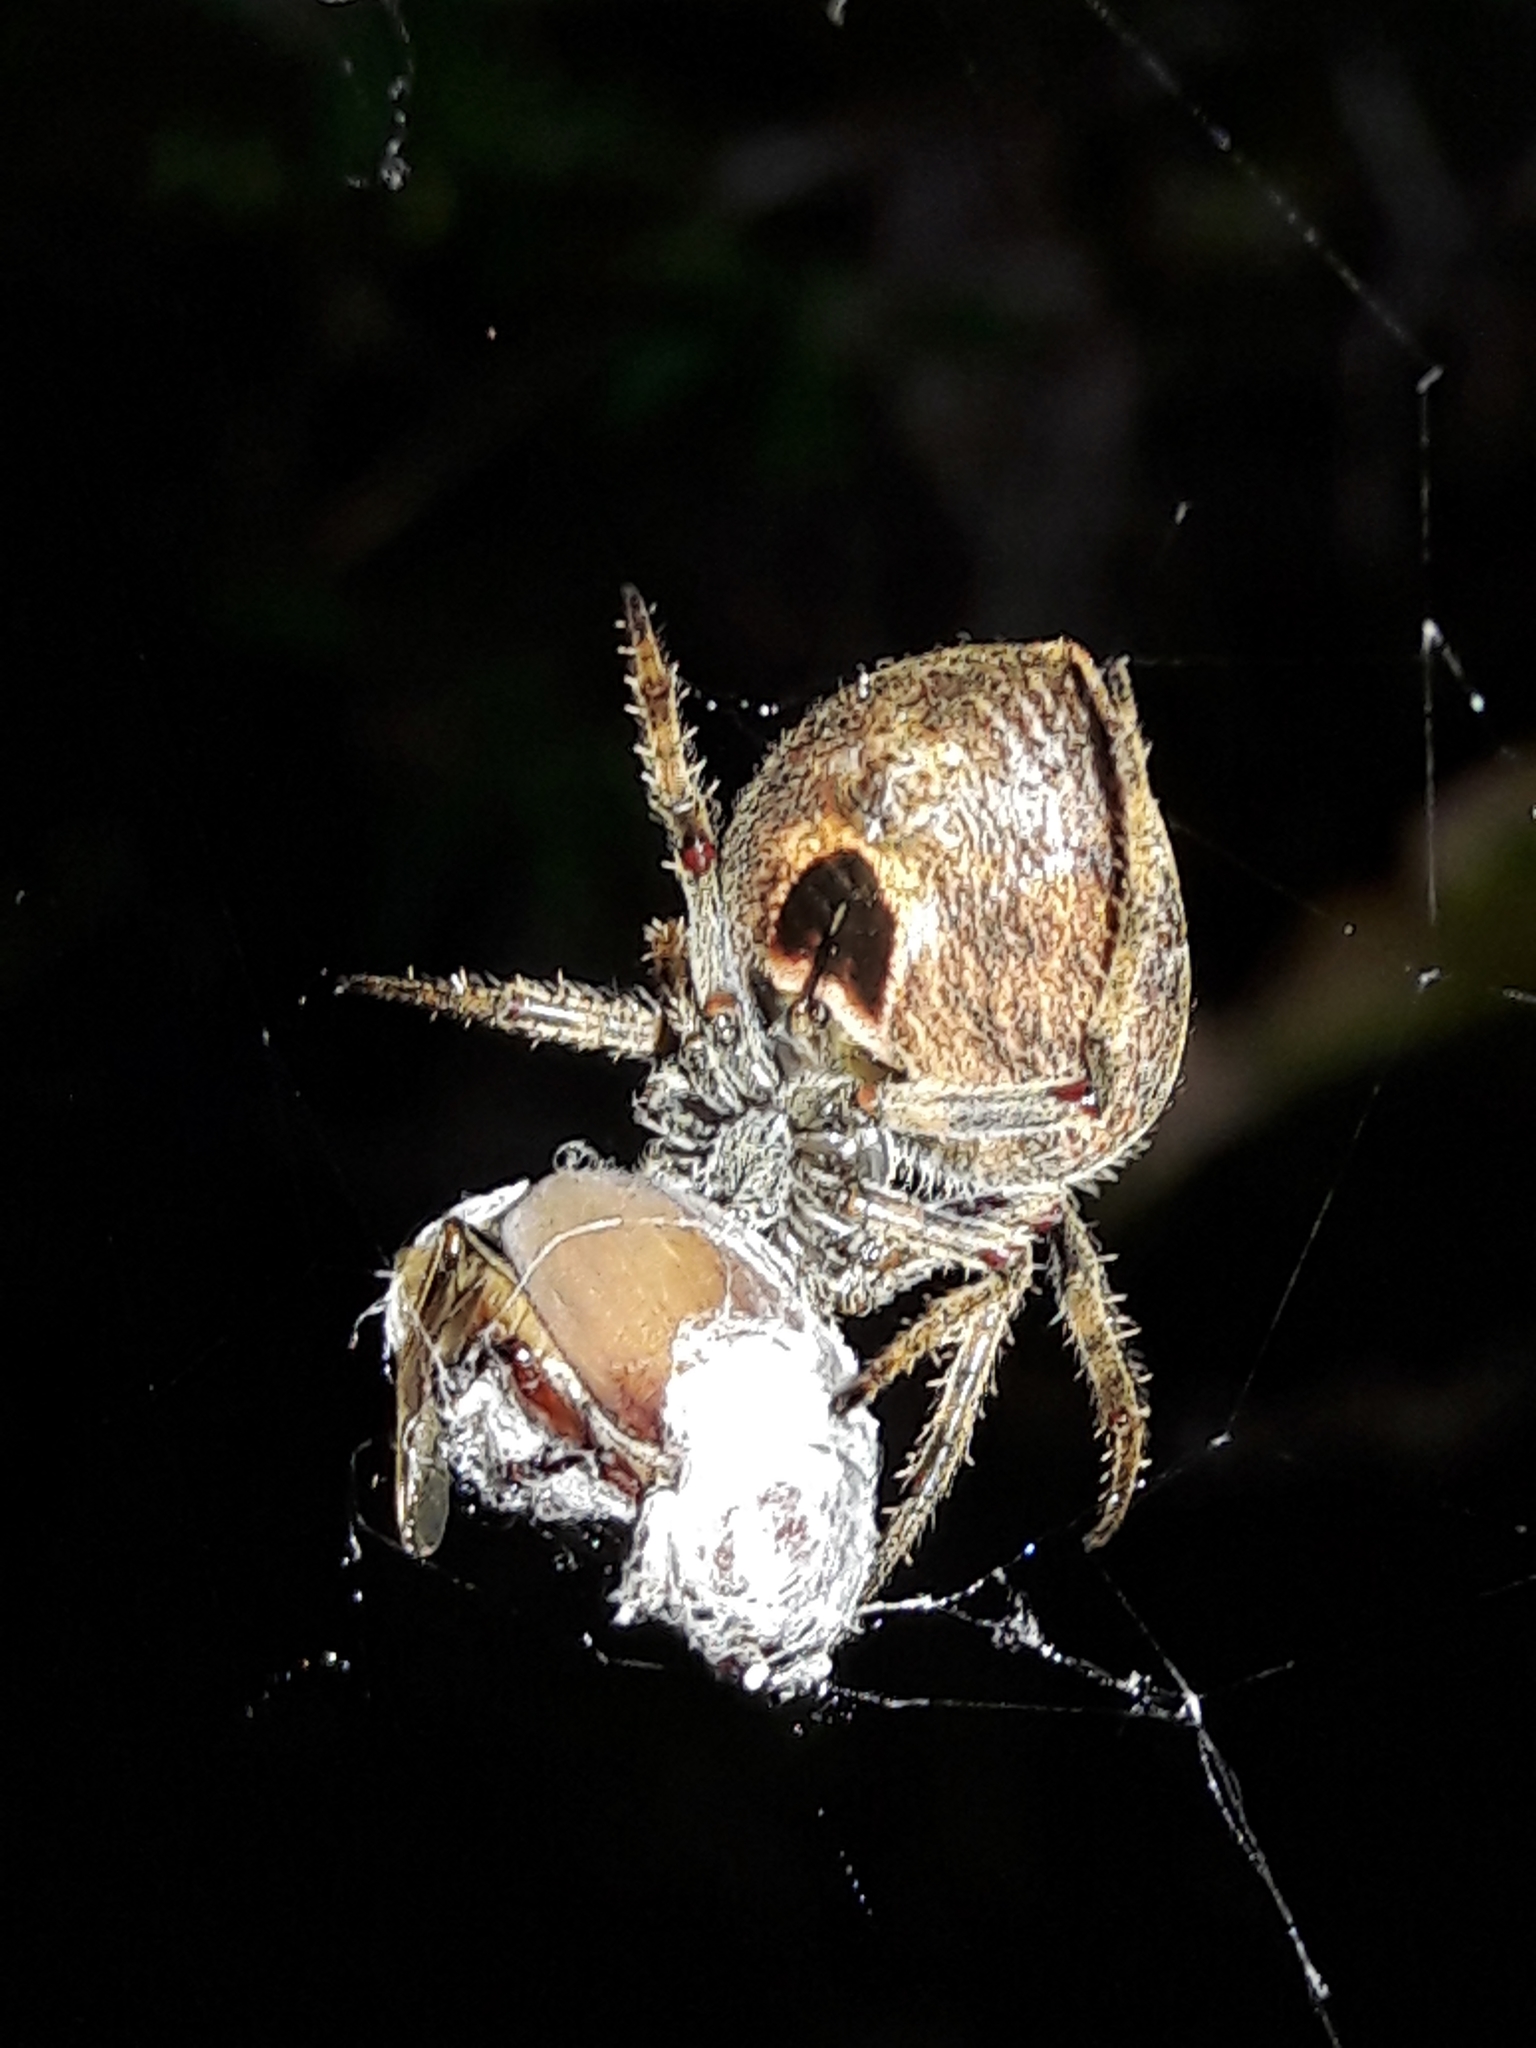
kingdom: Animalia
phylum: Arthropoda
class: Arachnida
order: Araneae
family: Araneidae
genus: Eriophora
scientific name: Eriophora edax
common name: Orb weavers
